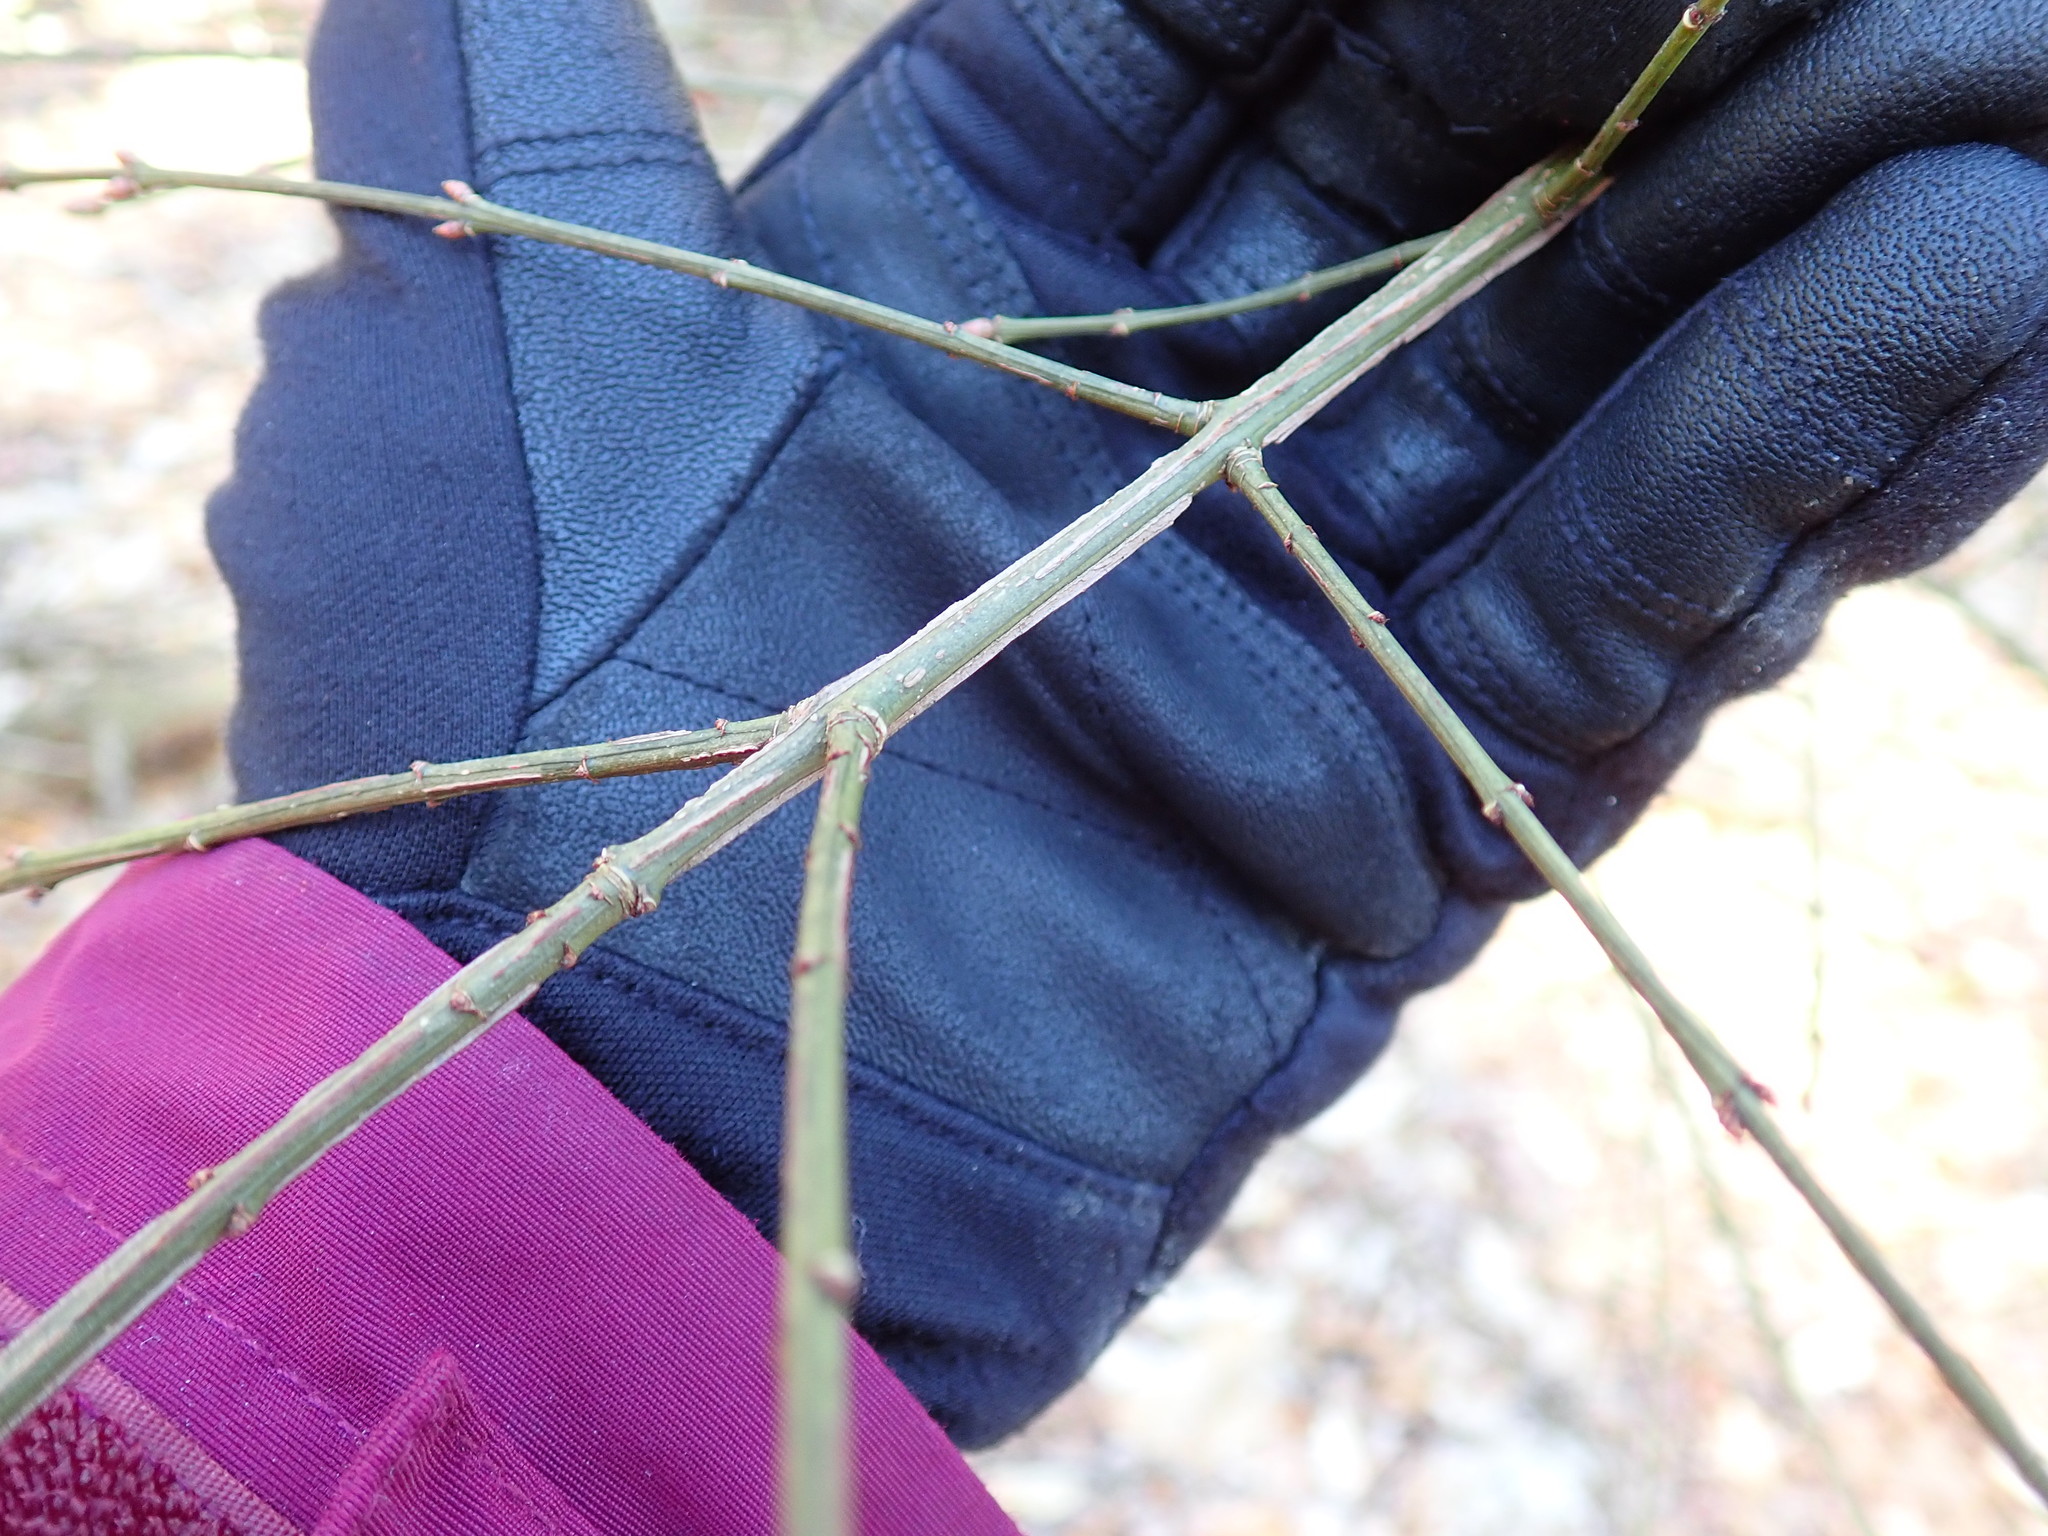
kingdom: Plantae
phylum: Tracheophyta
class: Magnoliopsida
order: Celastrales
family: Celastraceae
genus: Euonymus
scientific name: Euonymus alatus
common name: Winged euonymus
